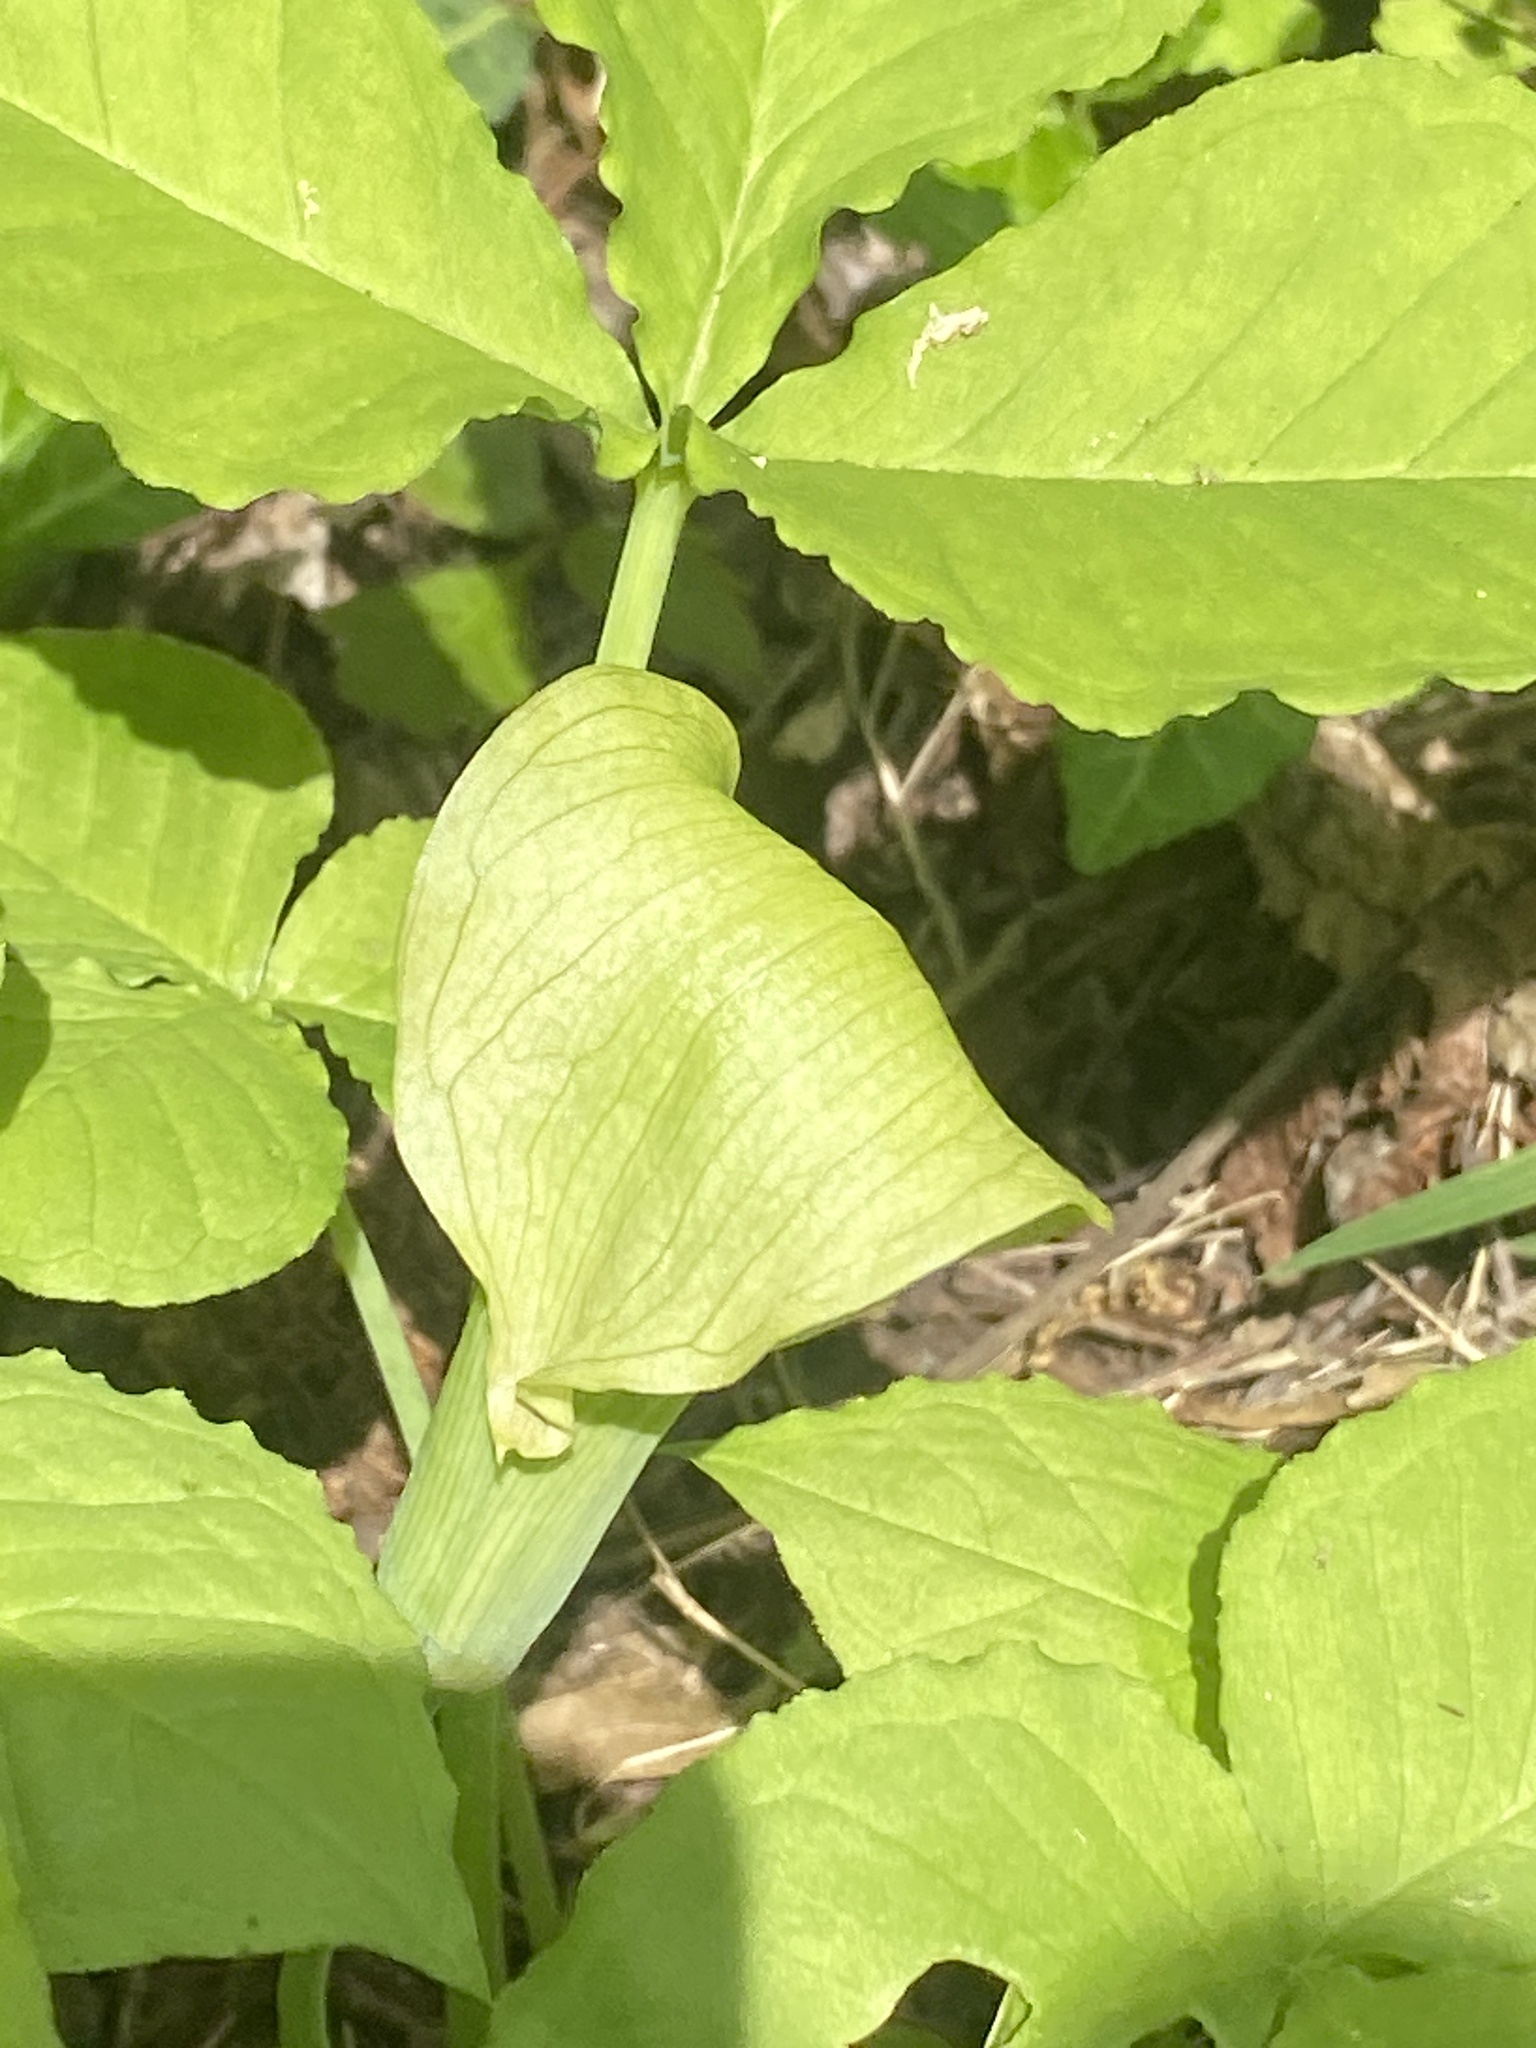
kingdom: Plantae
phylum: Tracheophyta
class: Liliopsida
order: Alismatales
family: Araceae
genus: Arisaema
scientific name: Arisaema triphyllum
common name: Jack-in-the-pulpit
